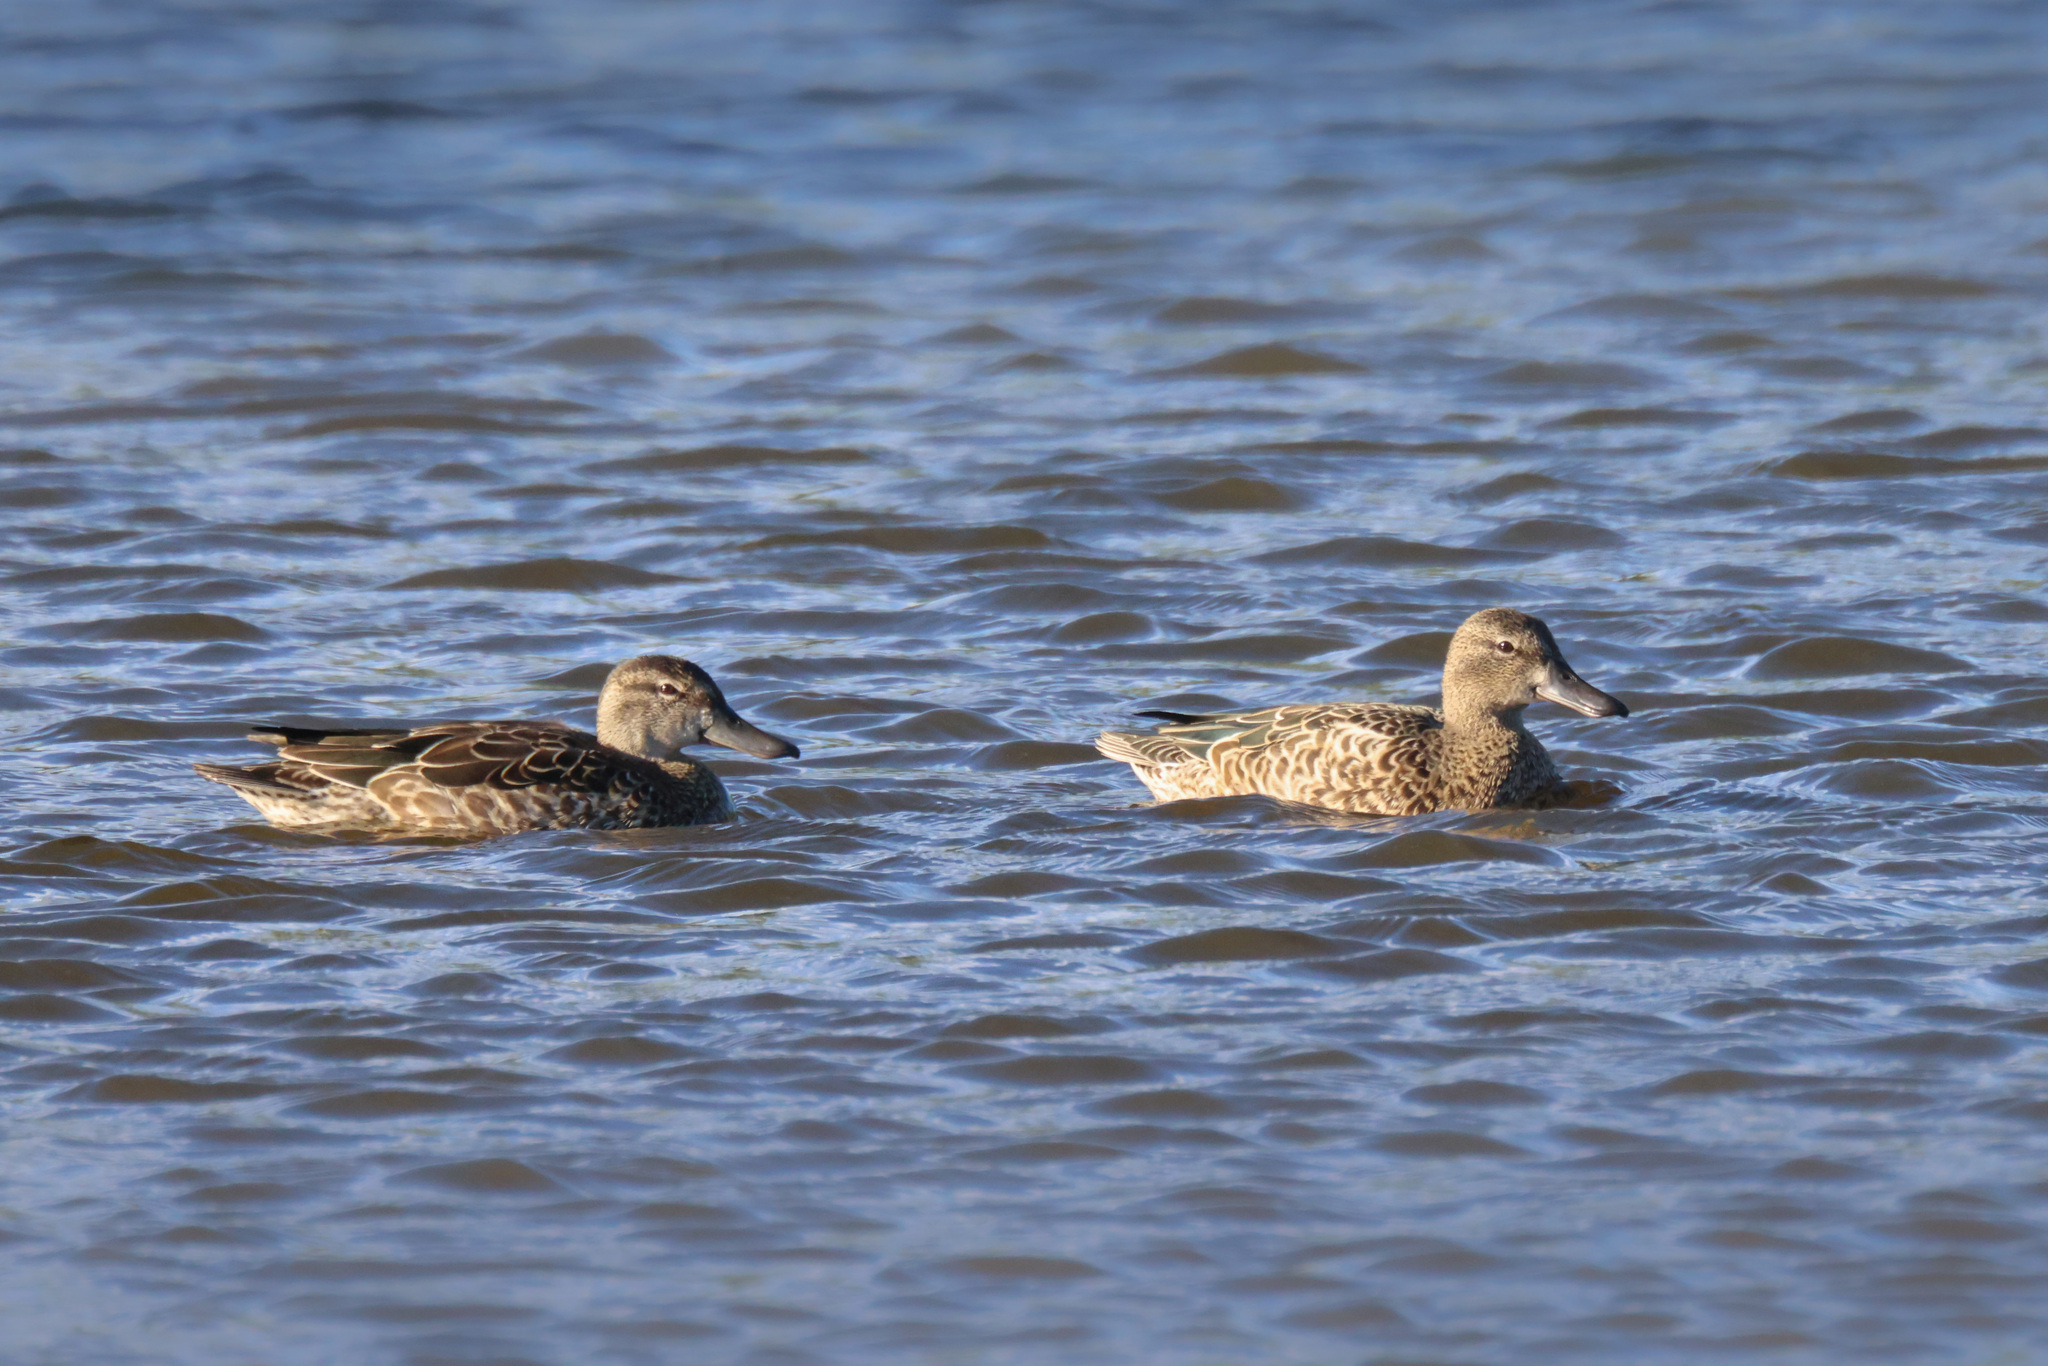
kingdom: Animalia
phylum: Chordata
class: Aves
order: Anseriformes
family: Anatidae
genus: Spatula
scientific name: Spatula discors
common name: Blue-winged teal
